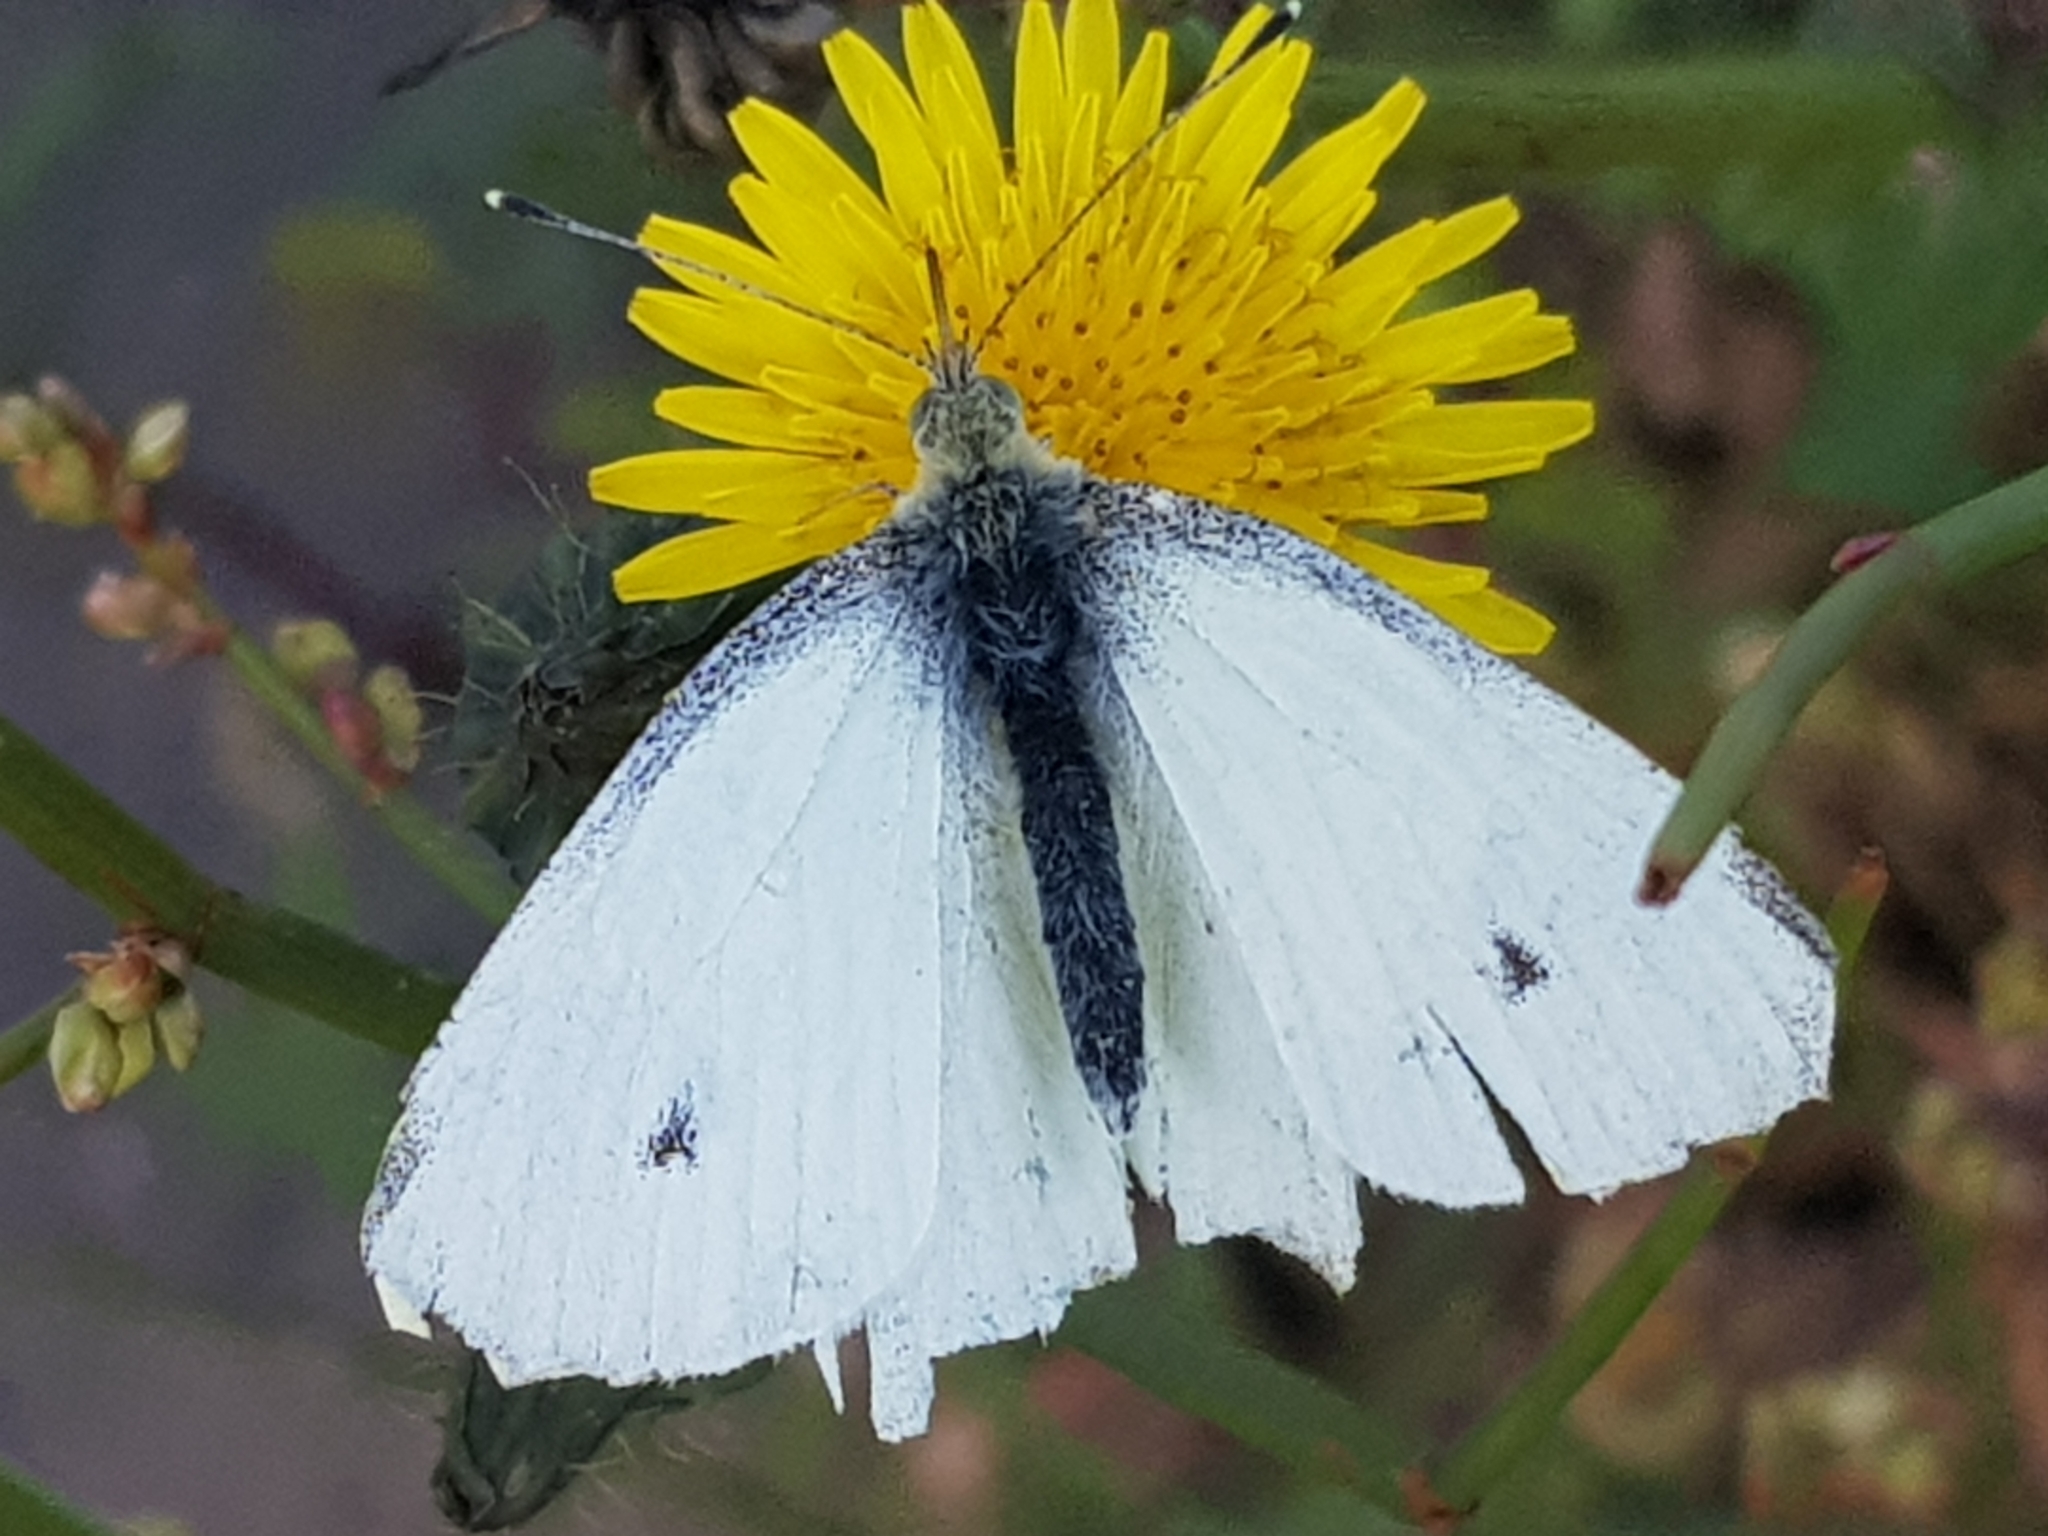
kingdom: Animalia
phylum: Arthropoda
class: Insecta
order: Lepidoptera
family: Pieridae
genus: Pieris
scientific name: Pieris rapae
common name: Small white
